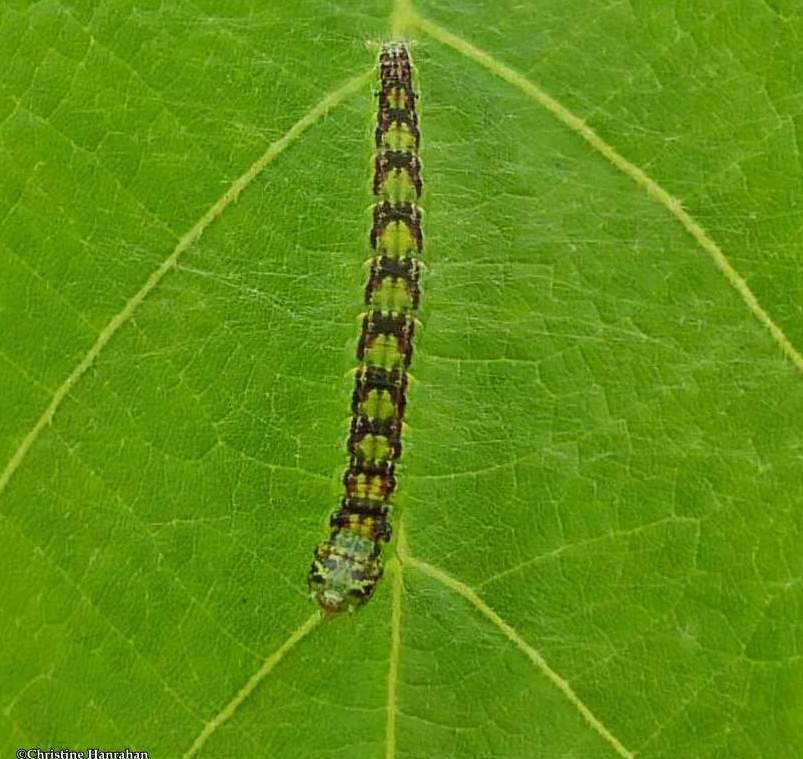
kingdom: Animalia
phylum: Arthropoda
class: Insecta
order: Lepidoptera
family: Pyralidae
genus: Oreana
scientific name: Oreana unicolorella
